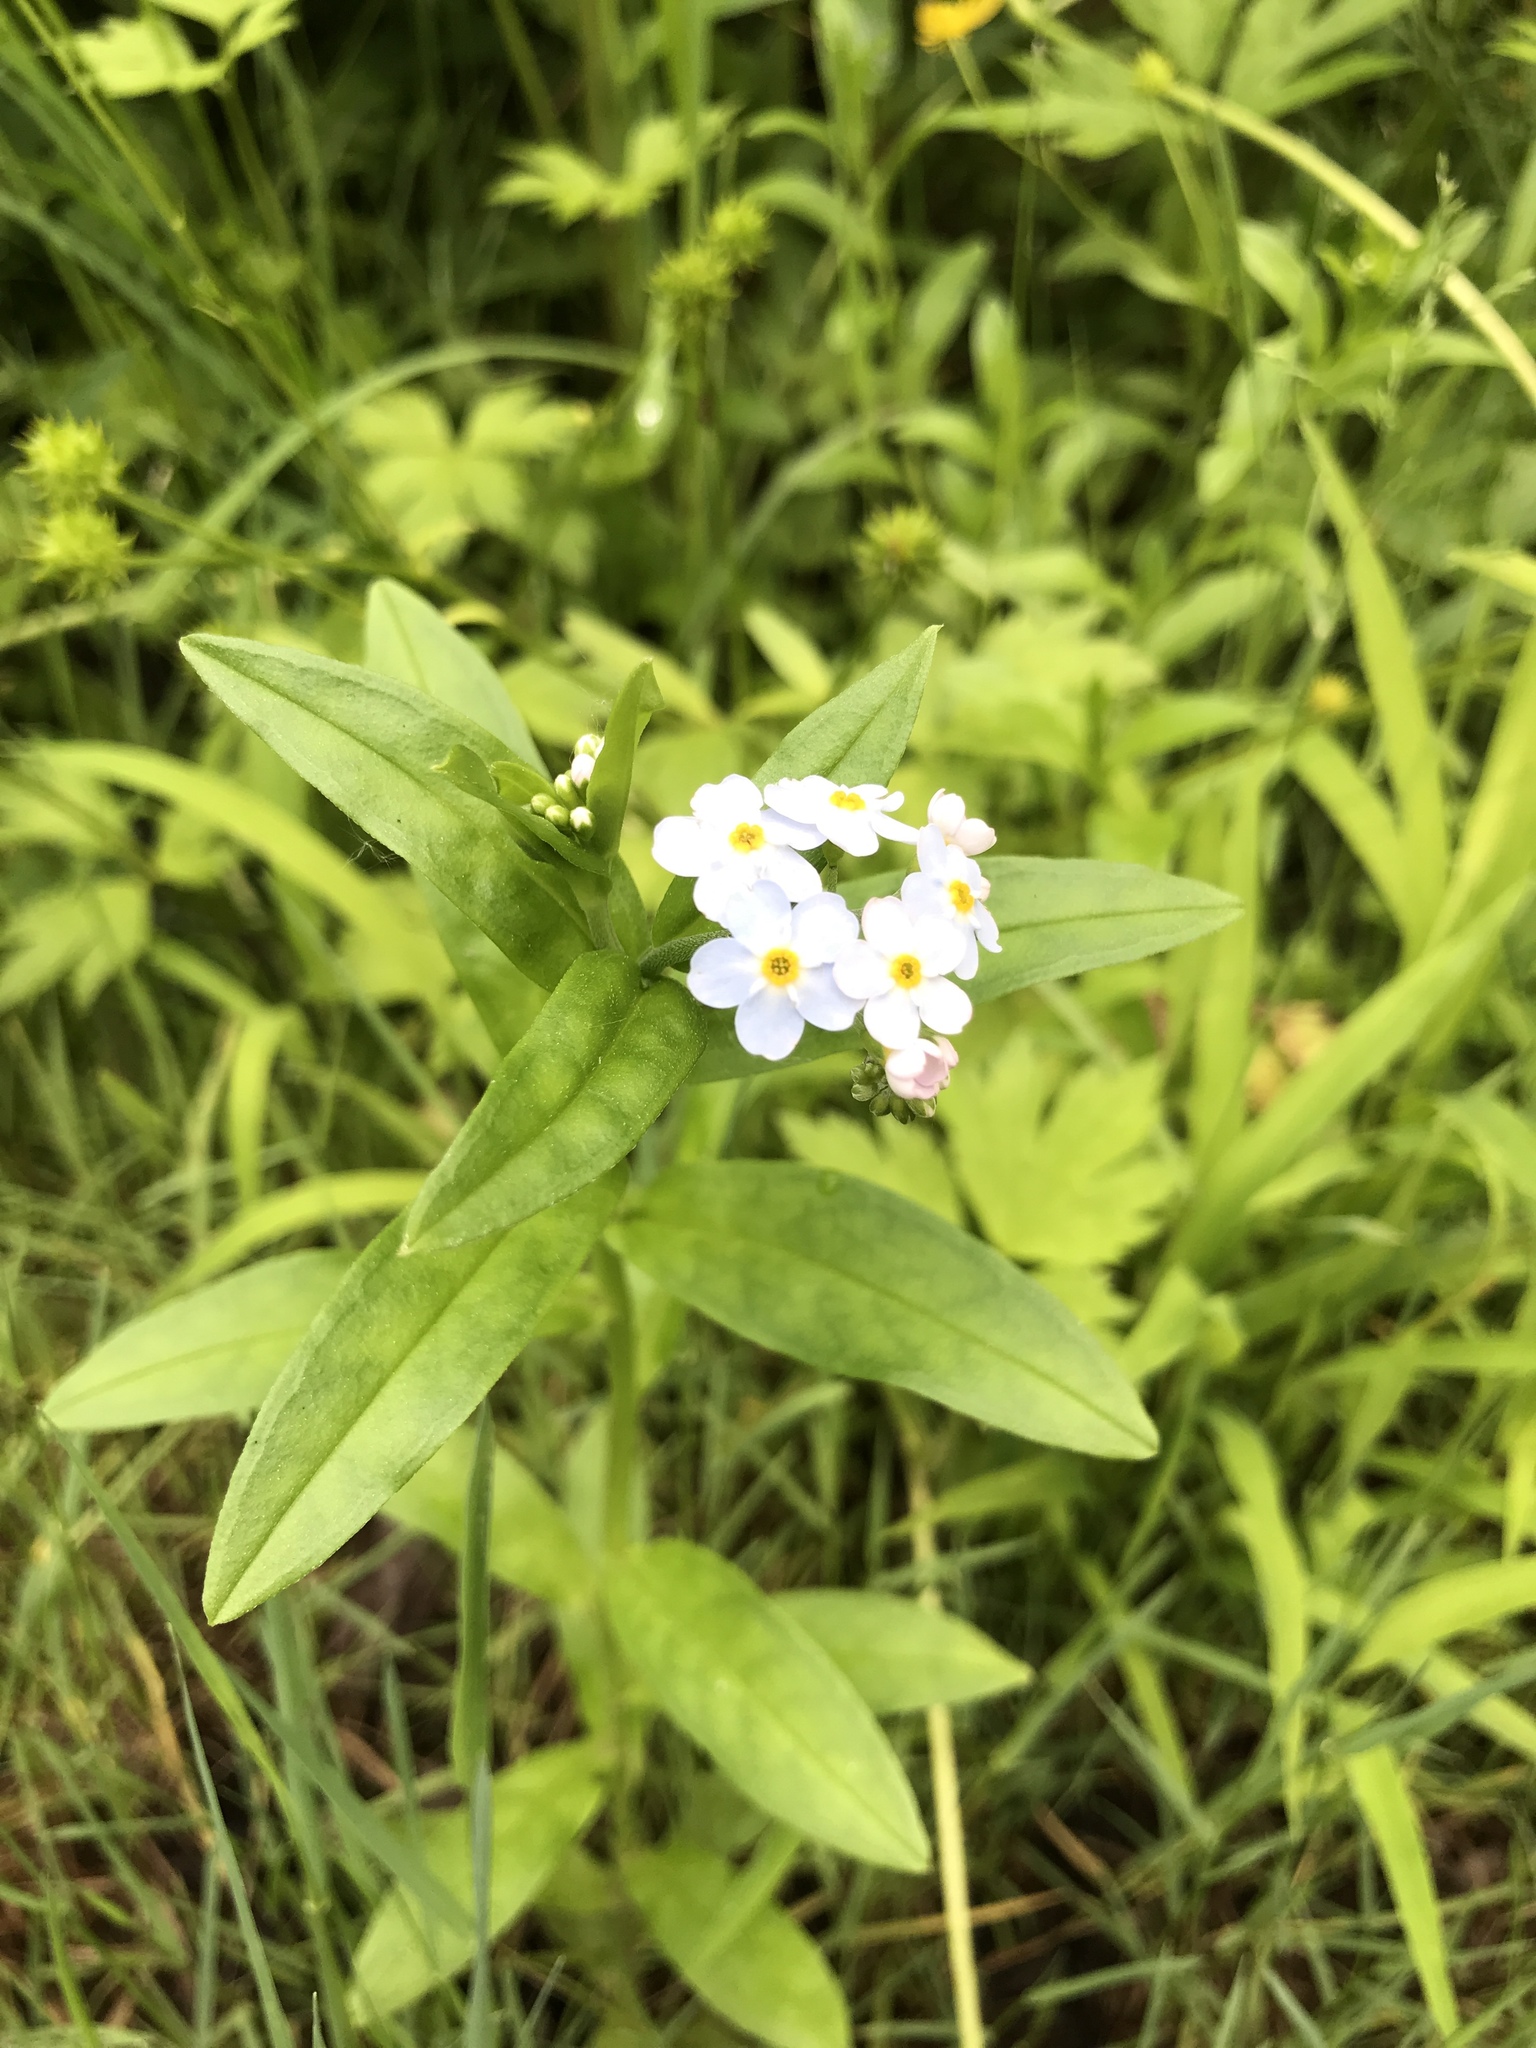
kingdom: Plantae
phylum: Tracheophyta
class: Magnoliopsida
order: Boraginales
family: Boraginaceae
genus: Myosotis
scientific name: Myosotis scorpioides
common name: Water forget-me-not
